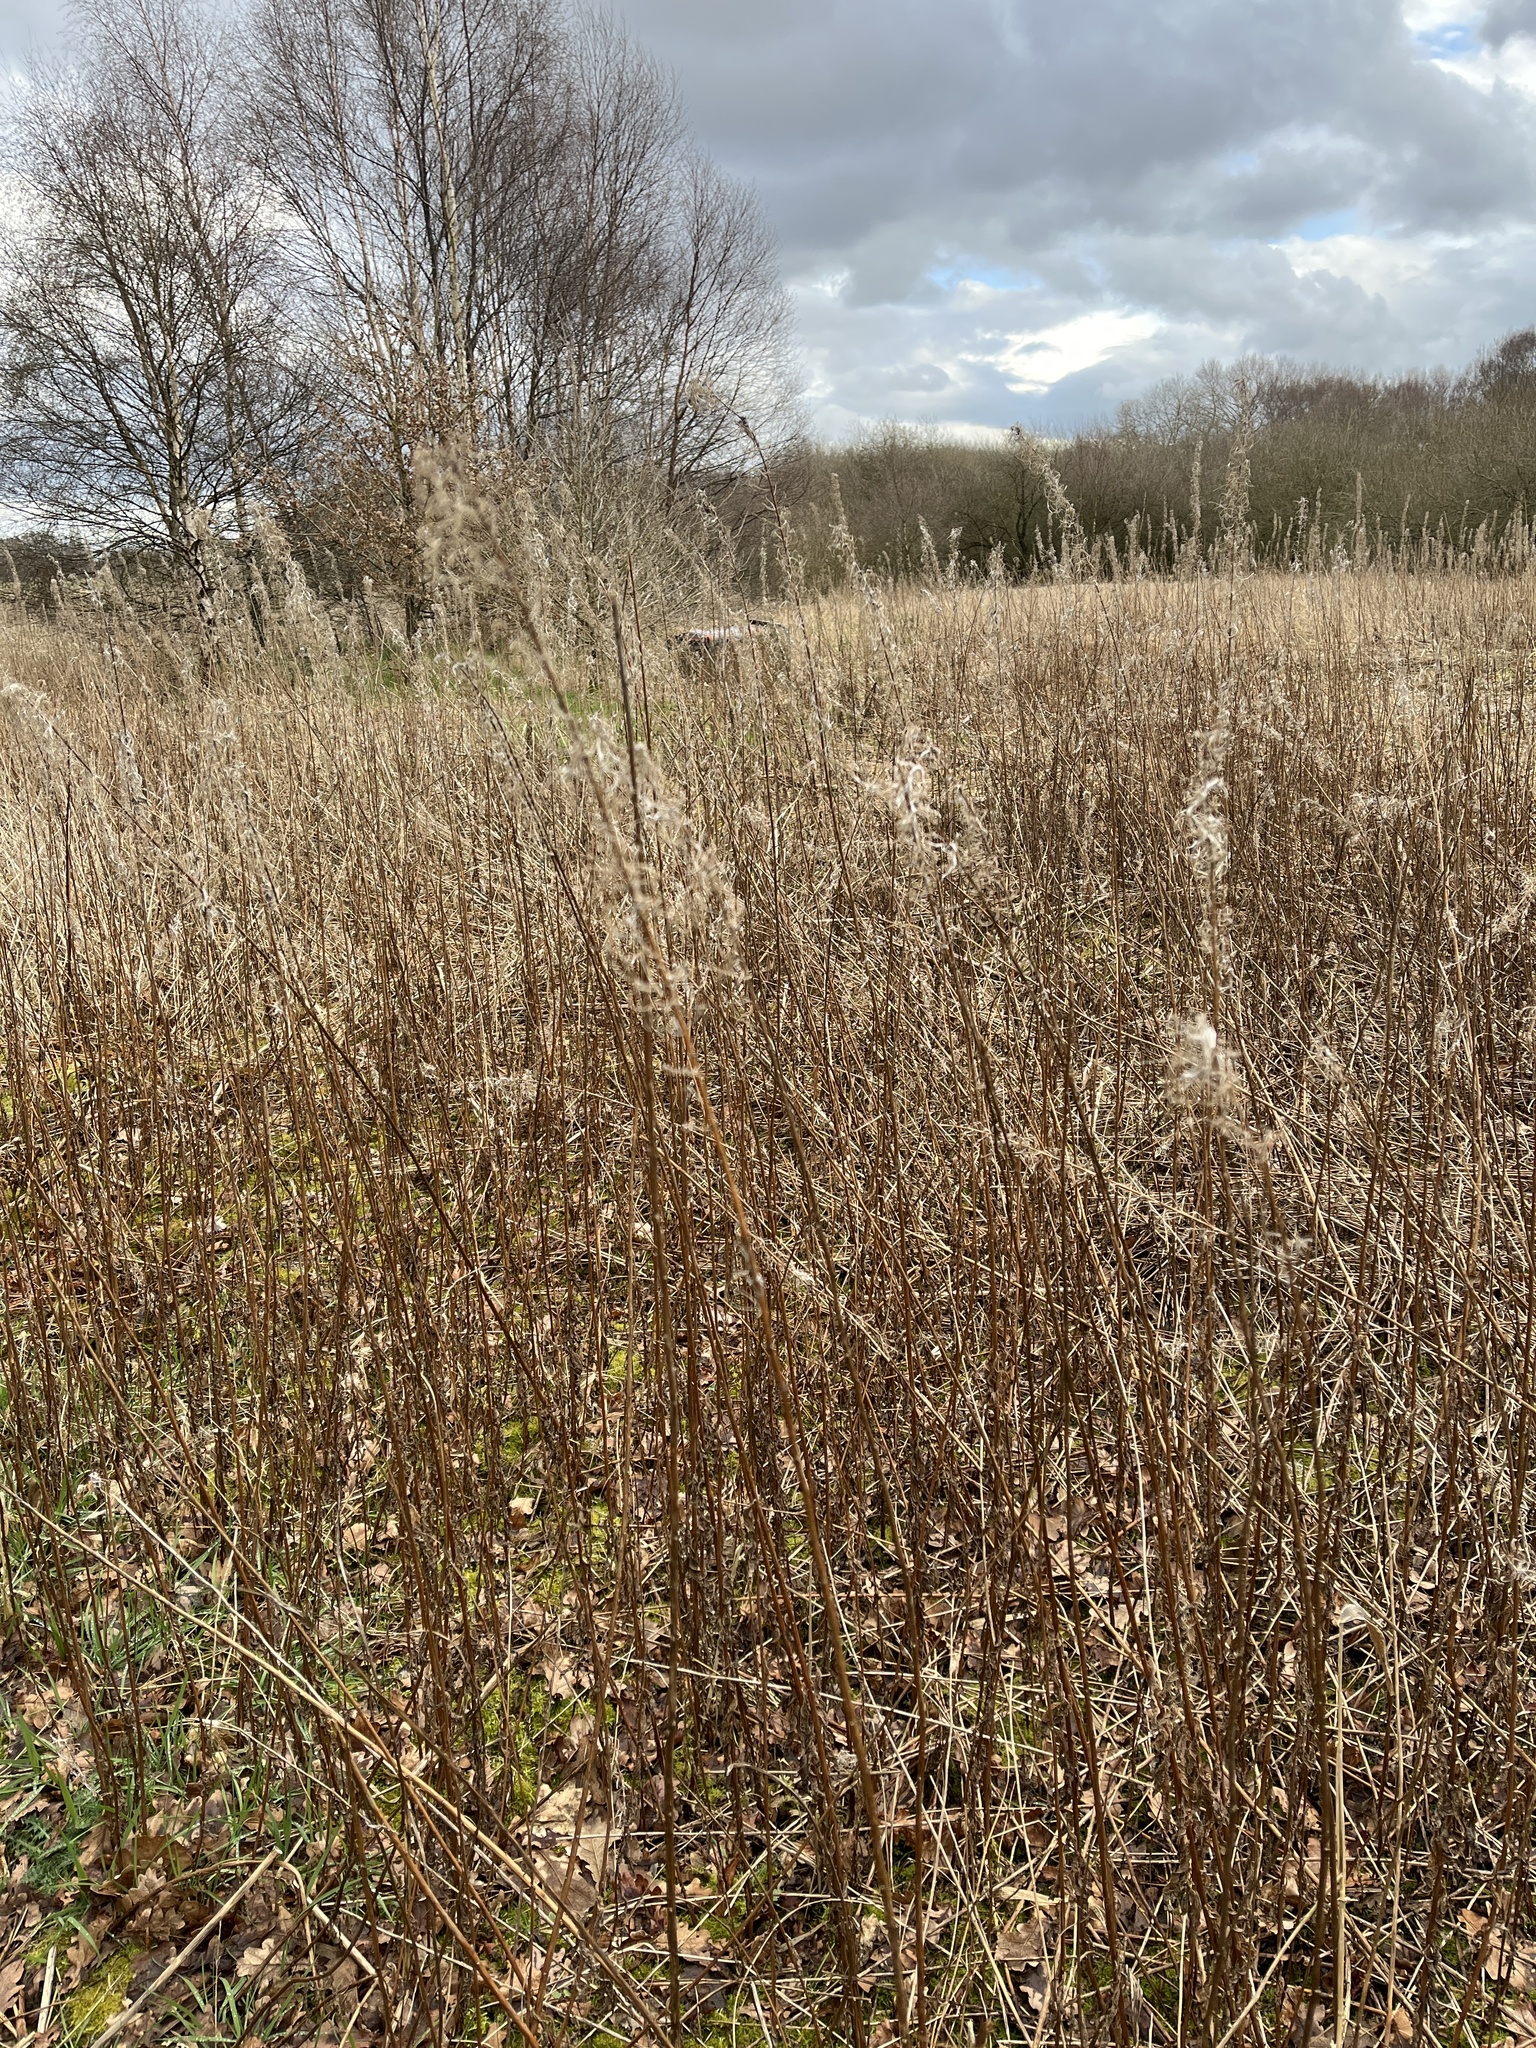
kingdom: Plantae
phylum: Tracheophyta
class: Magnoliopsida
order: Myrtales
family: Onagraceae
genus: Chamaenerion
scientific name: Chamaenerion angustifolium
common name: Fireweed
